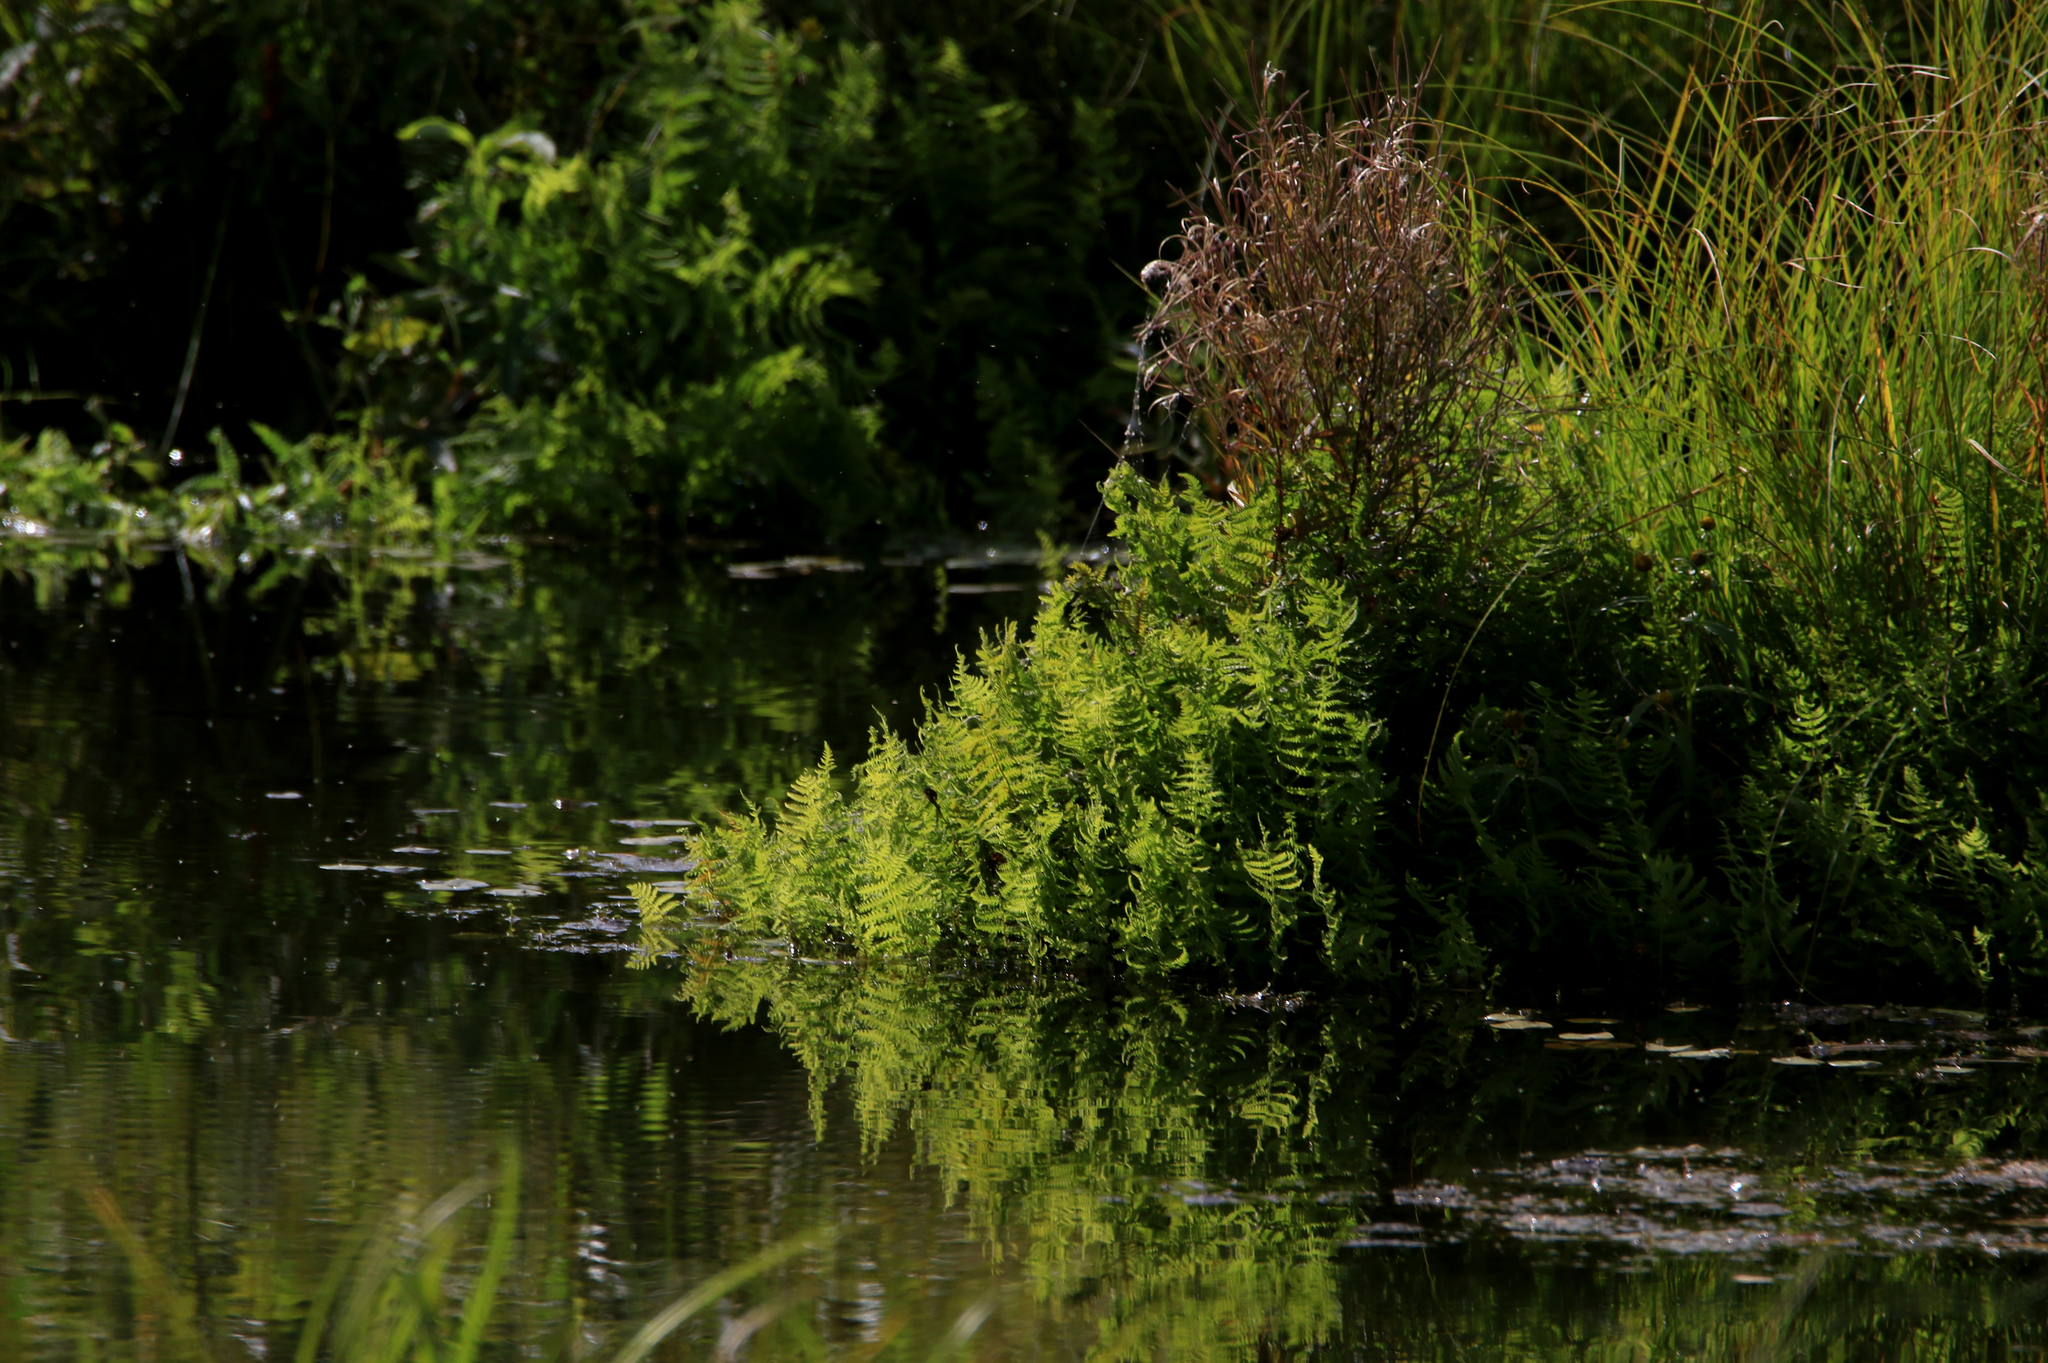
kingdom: Plantae
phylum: Tracheophyta
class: Polypodiopsida
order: Polypodiales
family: Thelypteridaceae
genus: Thelypteris
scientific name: Thelypteris palustris
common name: Marsh fern
